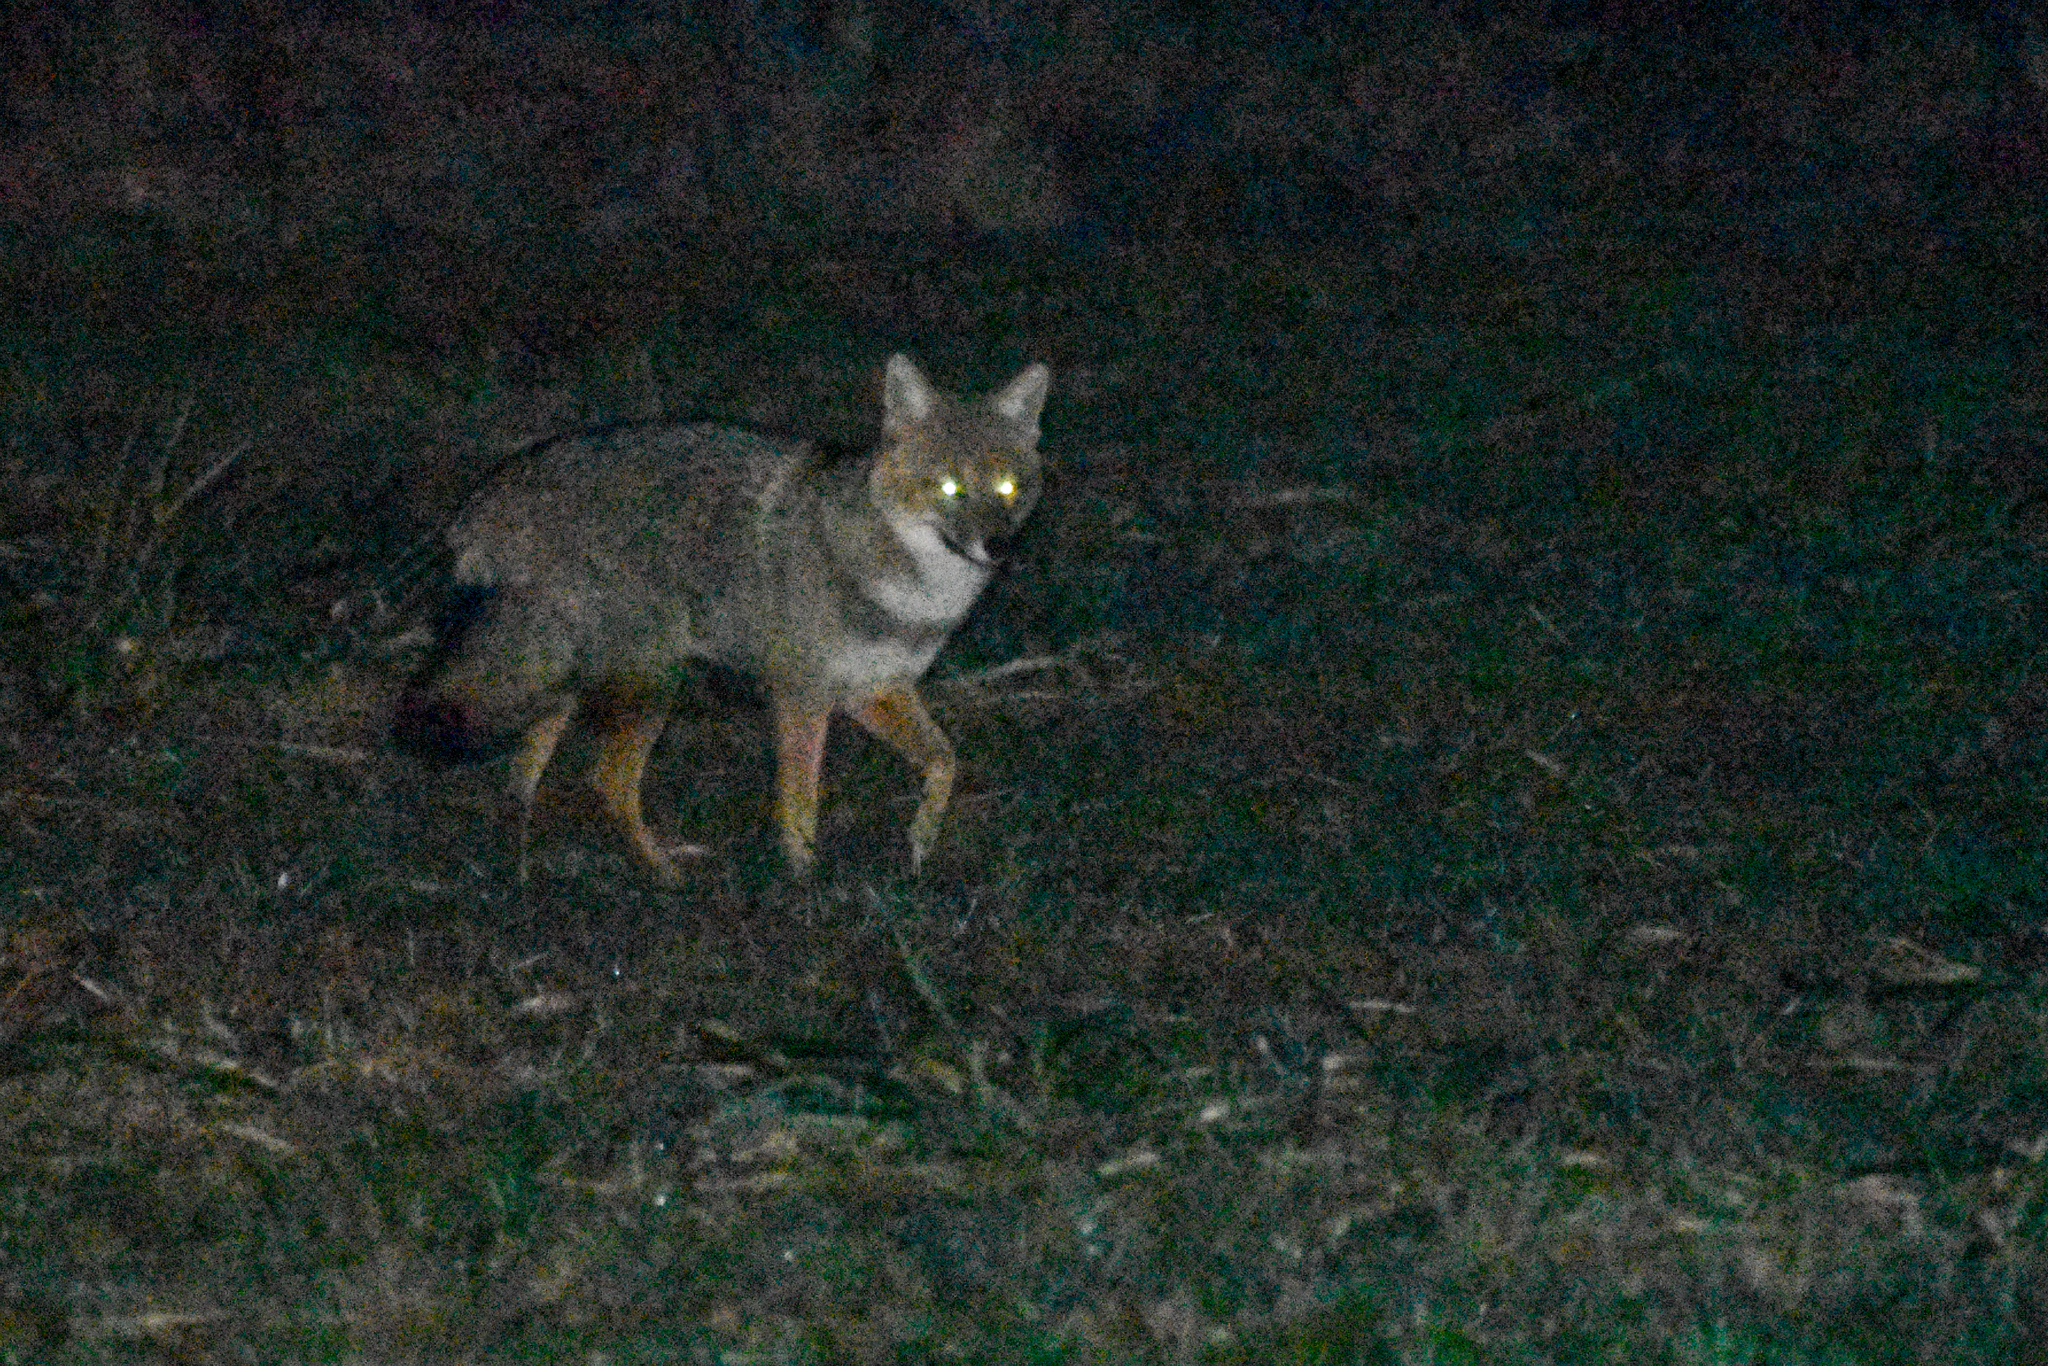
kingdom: Animalia
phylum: Chordata
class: Mammalia
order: Carnivora
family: Canidae
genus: Lycalopex
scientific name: Lycalopex gymnocercus
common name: Pampas fox
